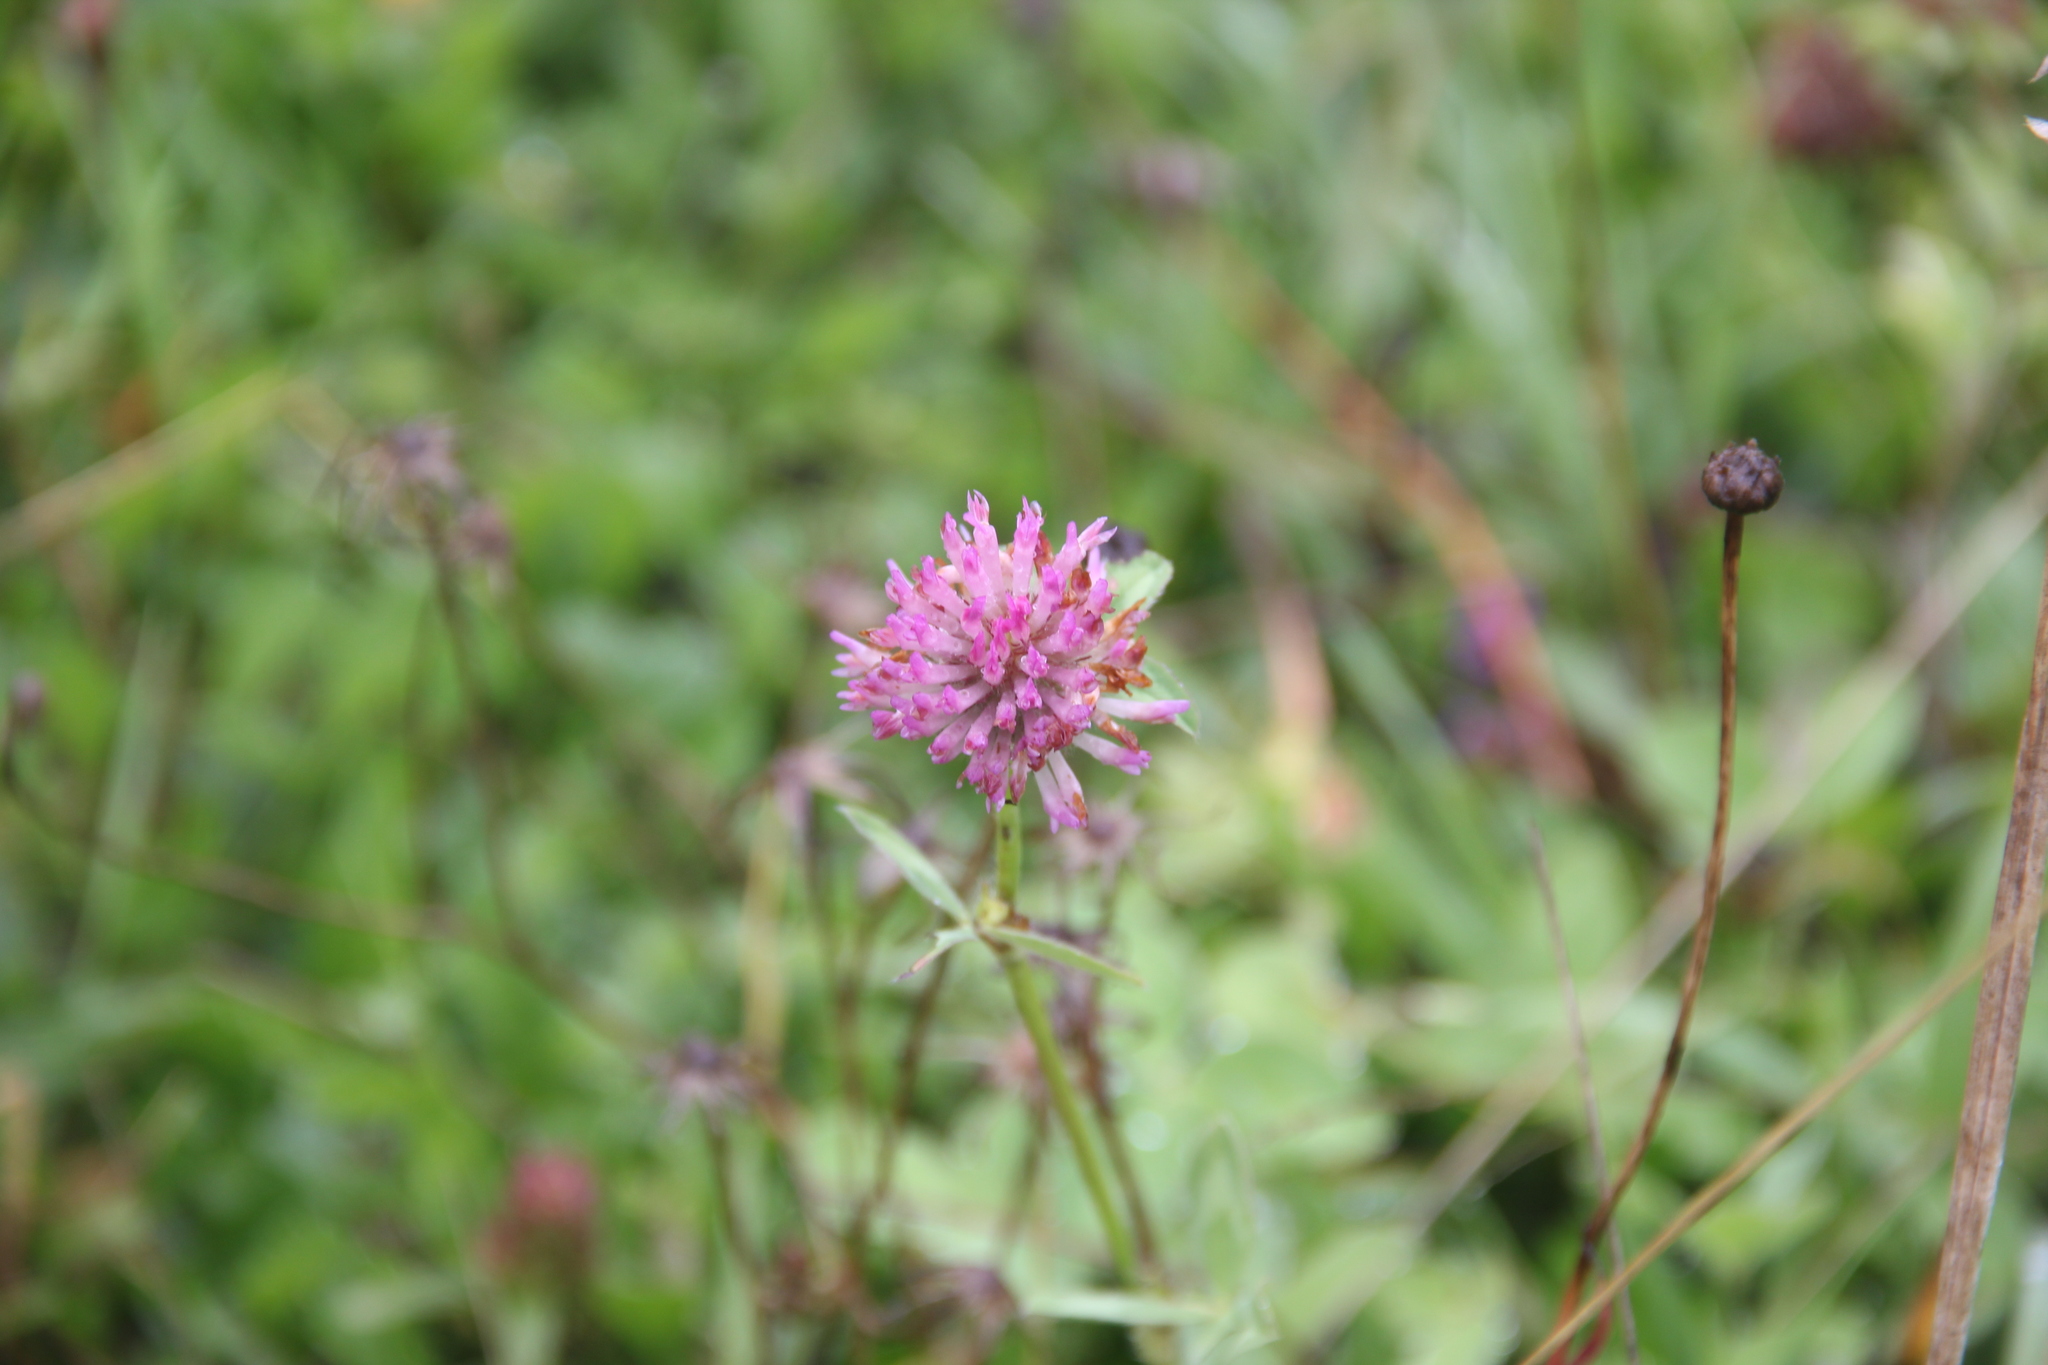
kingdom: Plantae
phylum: Tracheophyta
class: Magnoliopsida
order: Fabales
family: Fabaceae
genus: Trifolium
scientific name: Trifolium pratense
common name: Red clover
